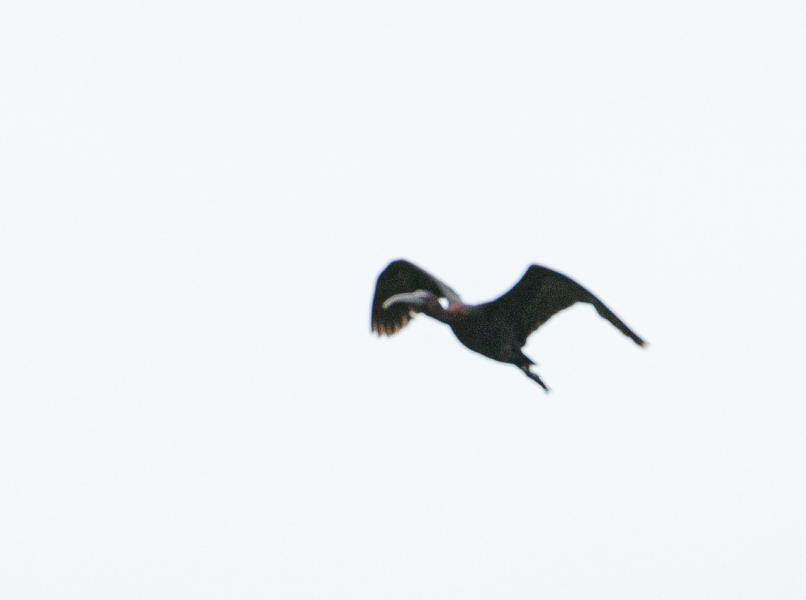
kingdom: Animalia
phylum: Chordata
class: Aves
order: Pelecaniformes
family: Threskiornithidae
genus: Plegadis
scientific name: Plegadis falcinellus
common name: Glossy ibis
